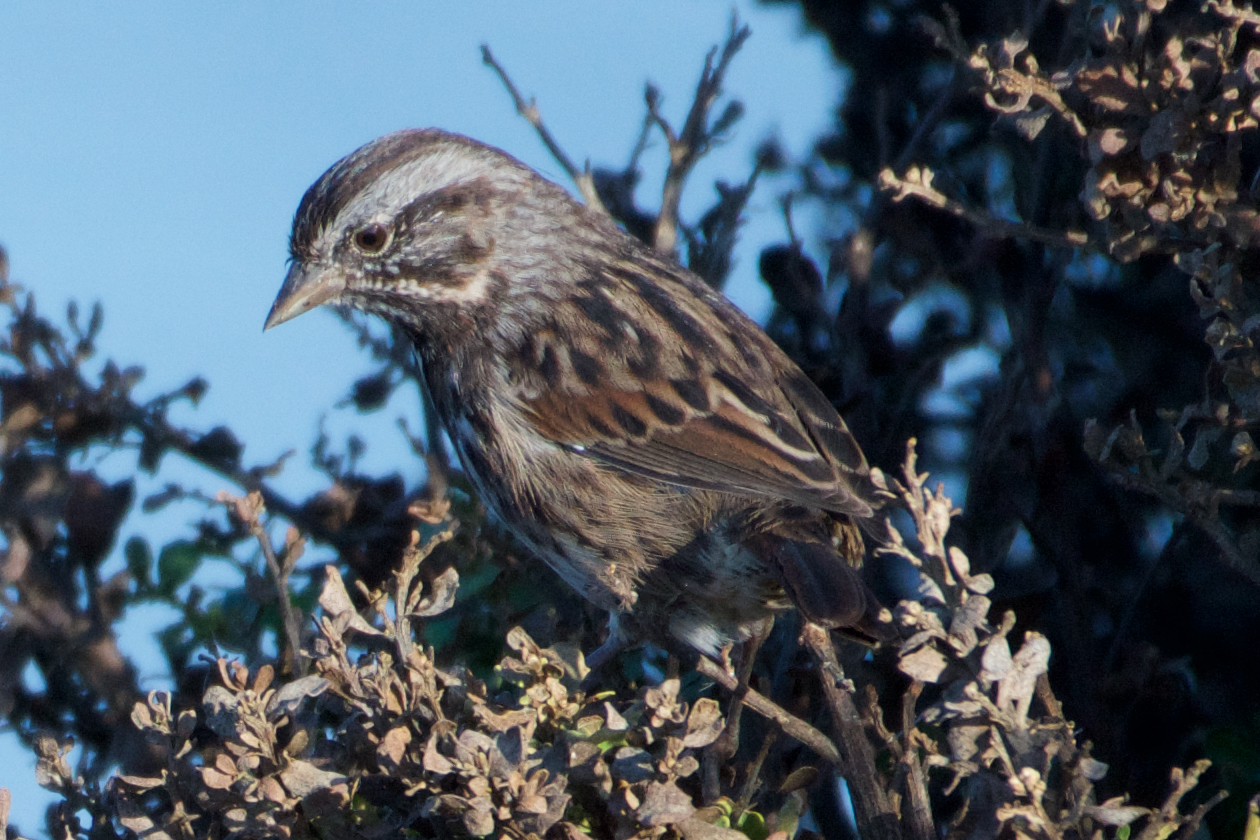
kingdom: Animalia
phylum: Chordata
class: Aves
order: Passeriformes
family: Passerellidae
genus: Melospiza
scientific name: Melospiza melodia
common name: Song sparrow
